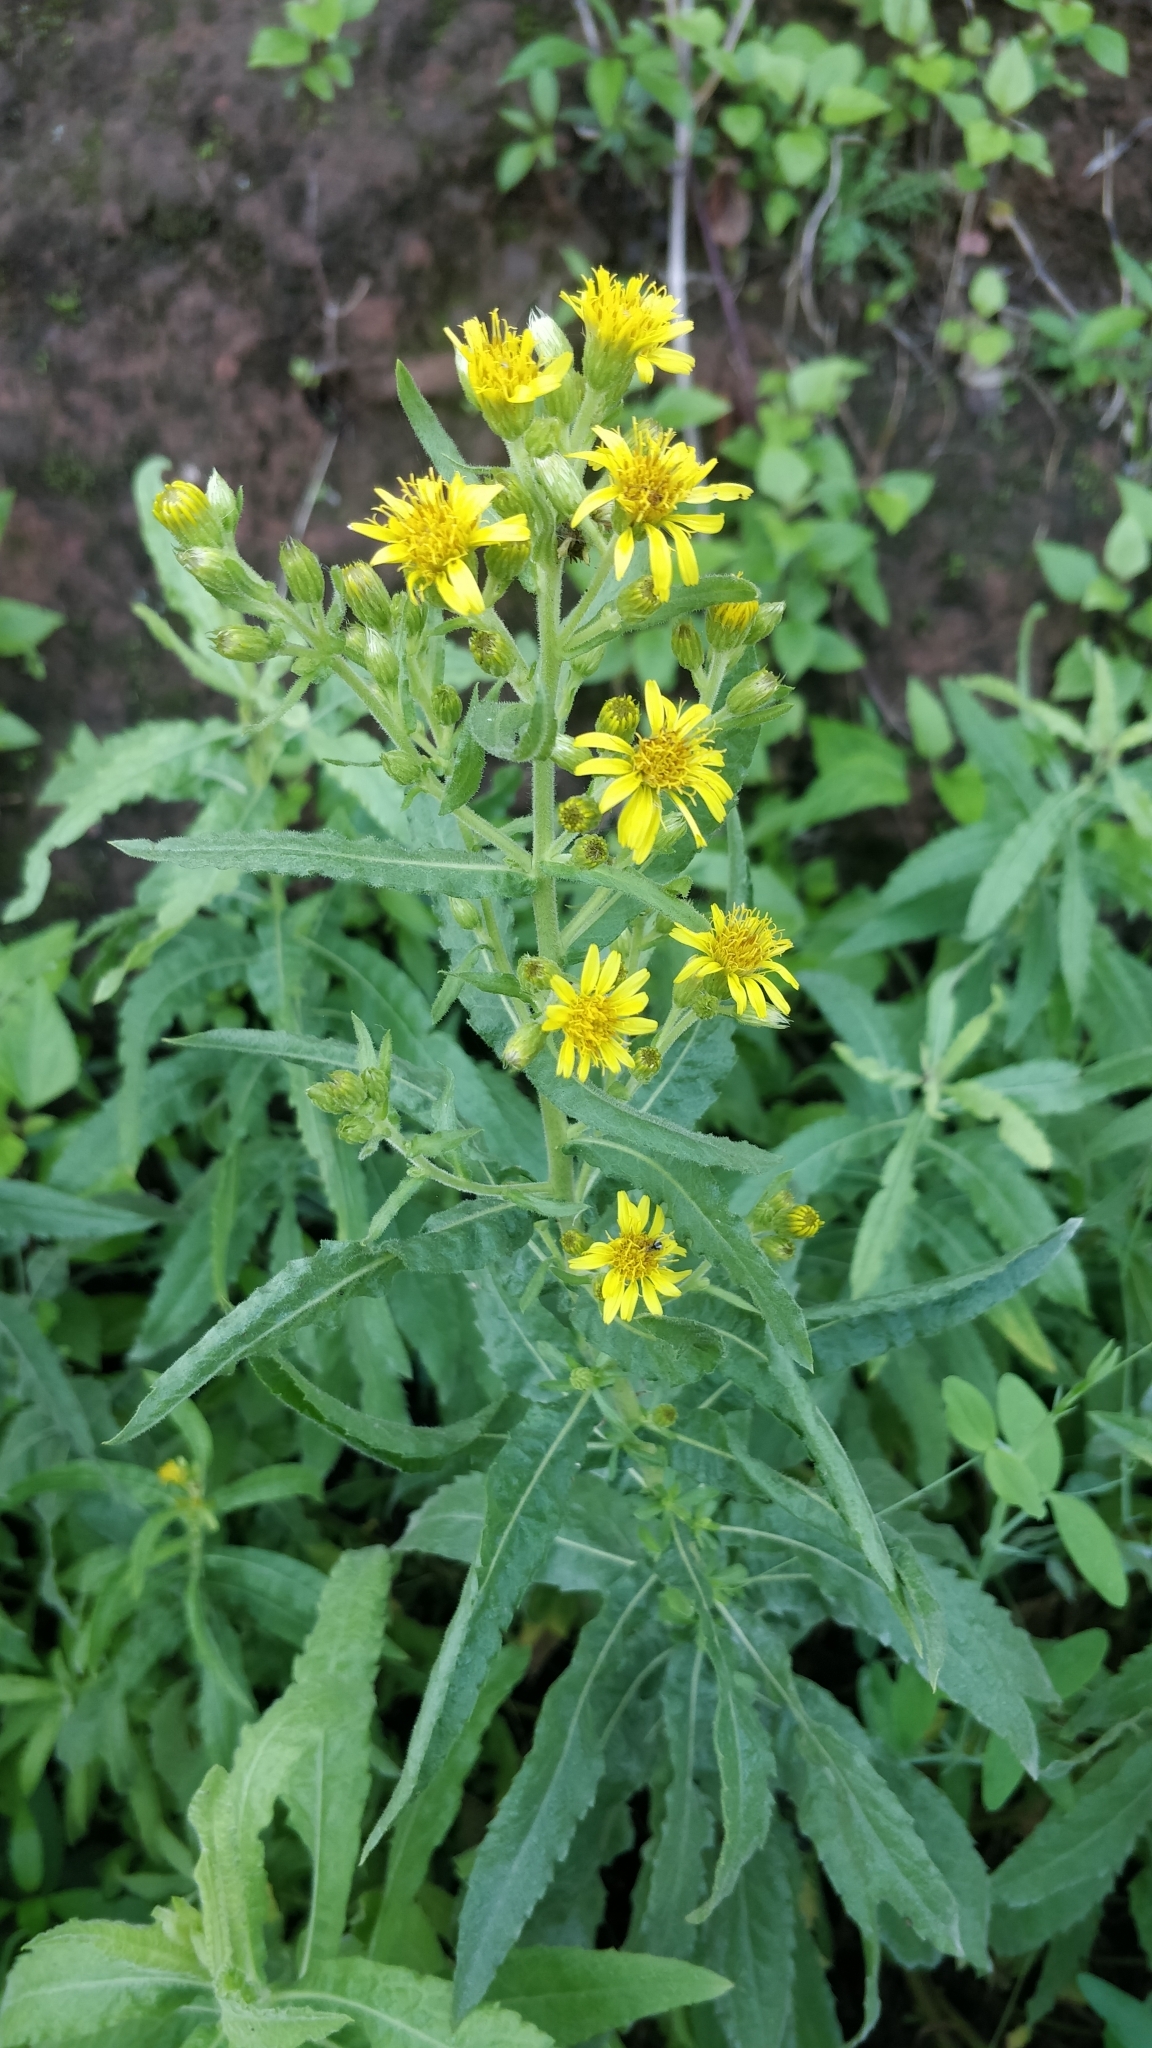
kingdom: Plantae
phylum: Tracheophyta
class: Magnoliopsida
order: Asterales
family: Asteraceae
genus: Dittrichia
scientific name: Dittrichia viscosa
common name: Woody fleabane
